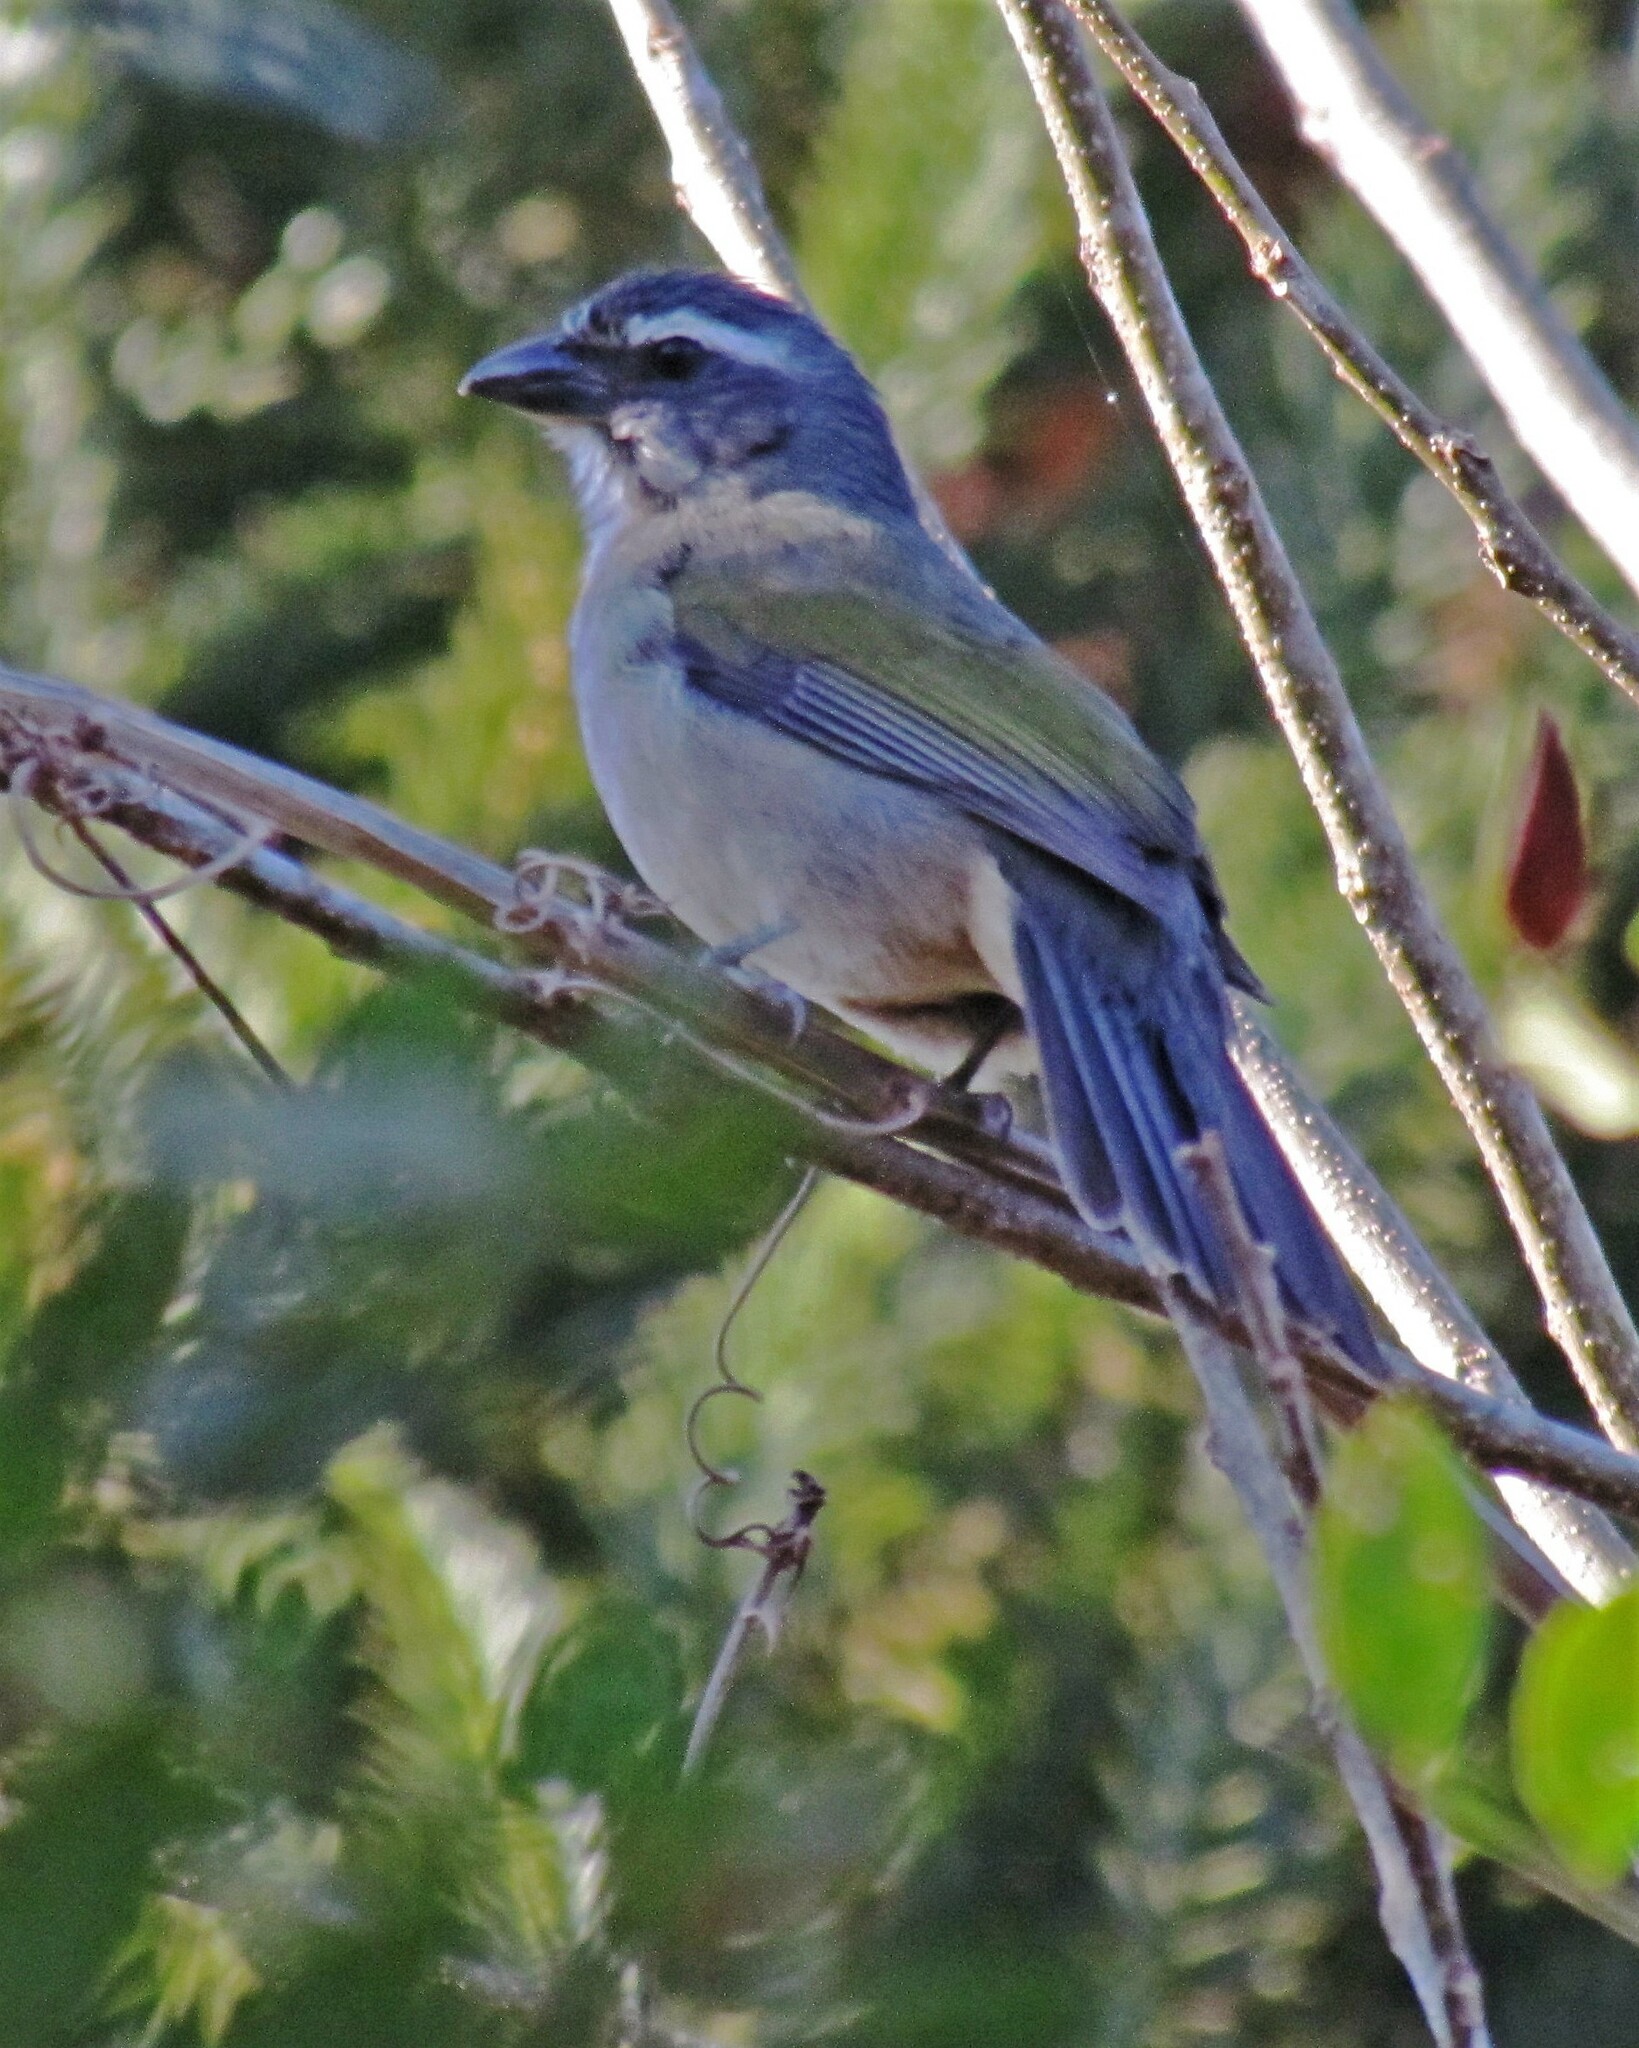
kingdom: Animalia
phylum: Chordata
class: Aves
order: Passeriformes
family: Thraupidae
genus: Saltator
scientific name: Saltator similis
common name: Green-winged saltator
